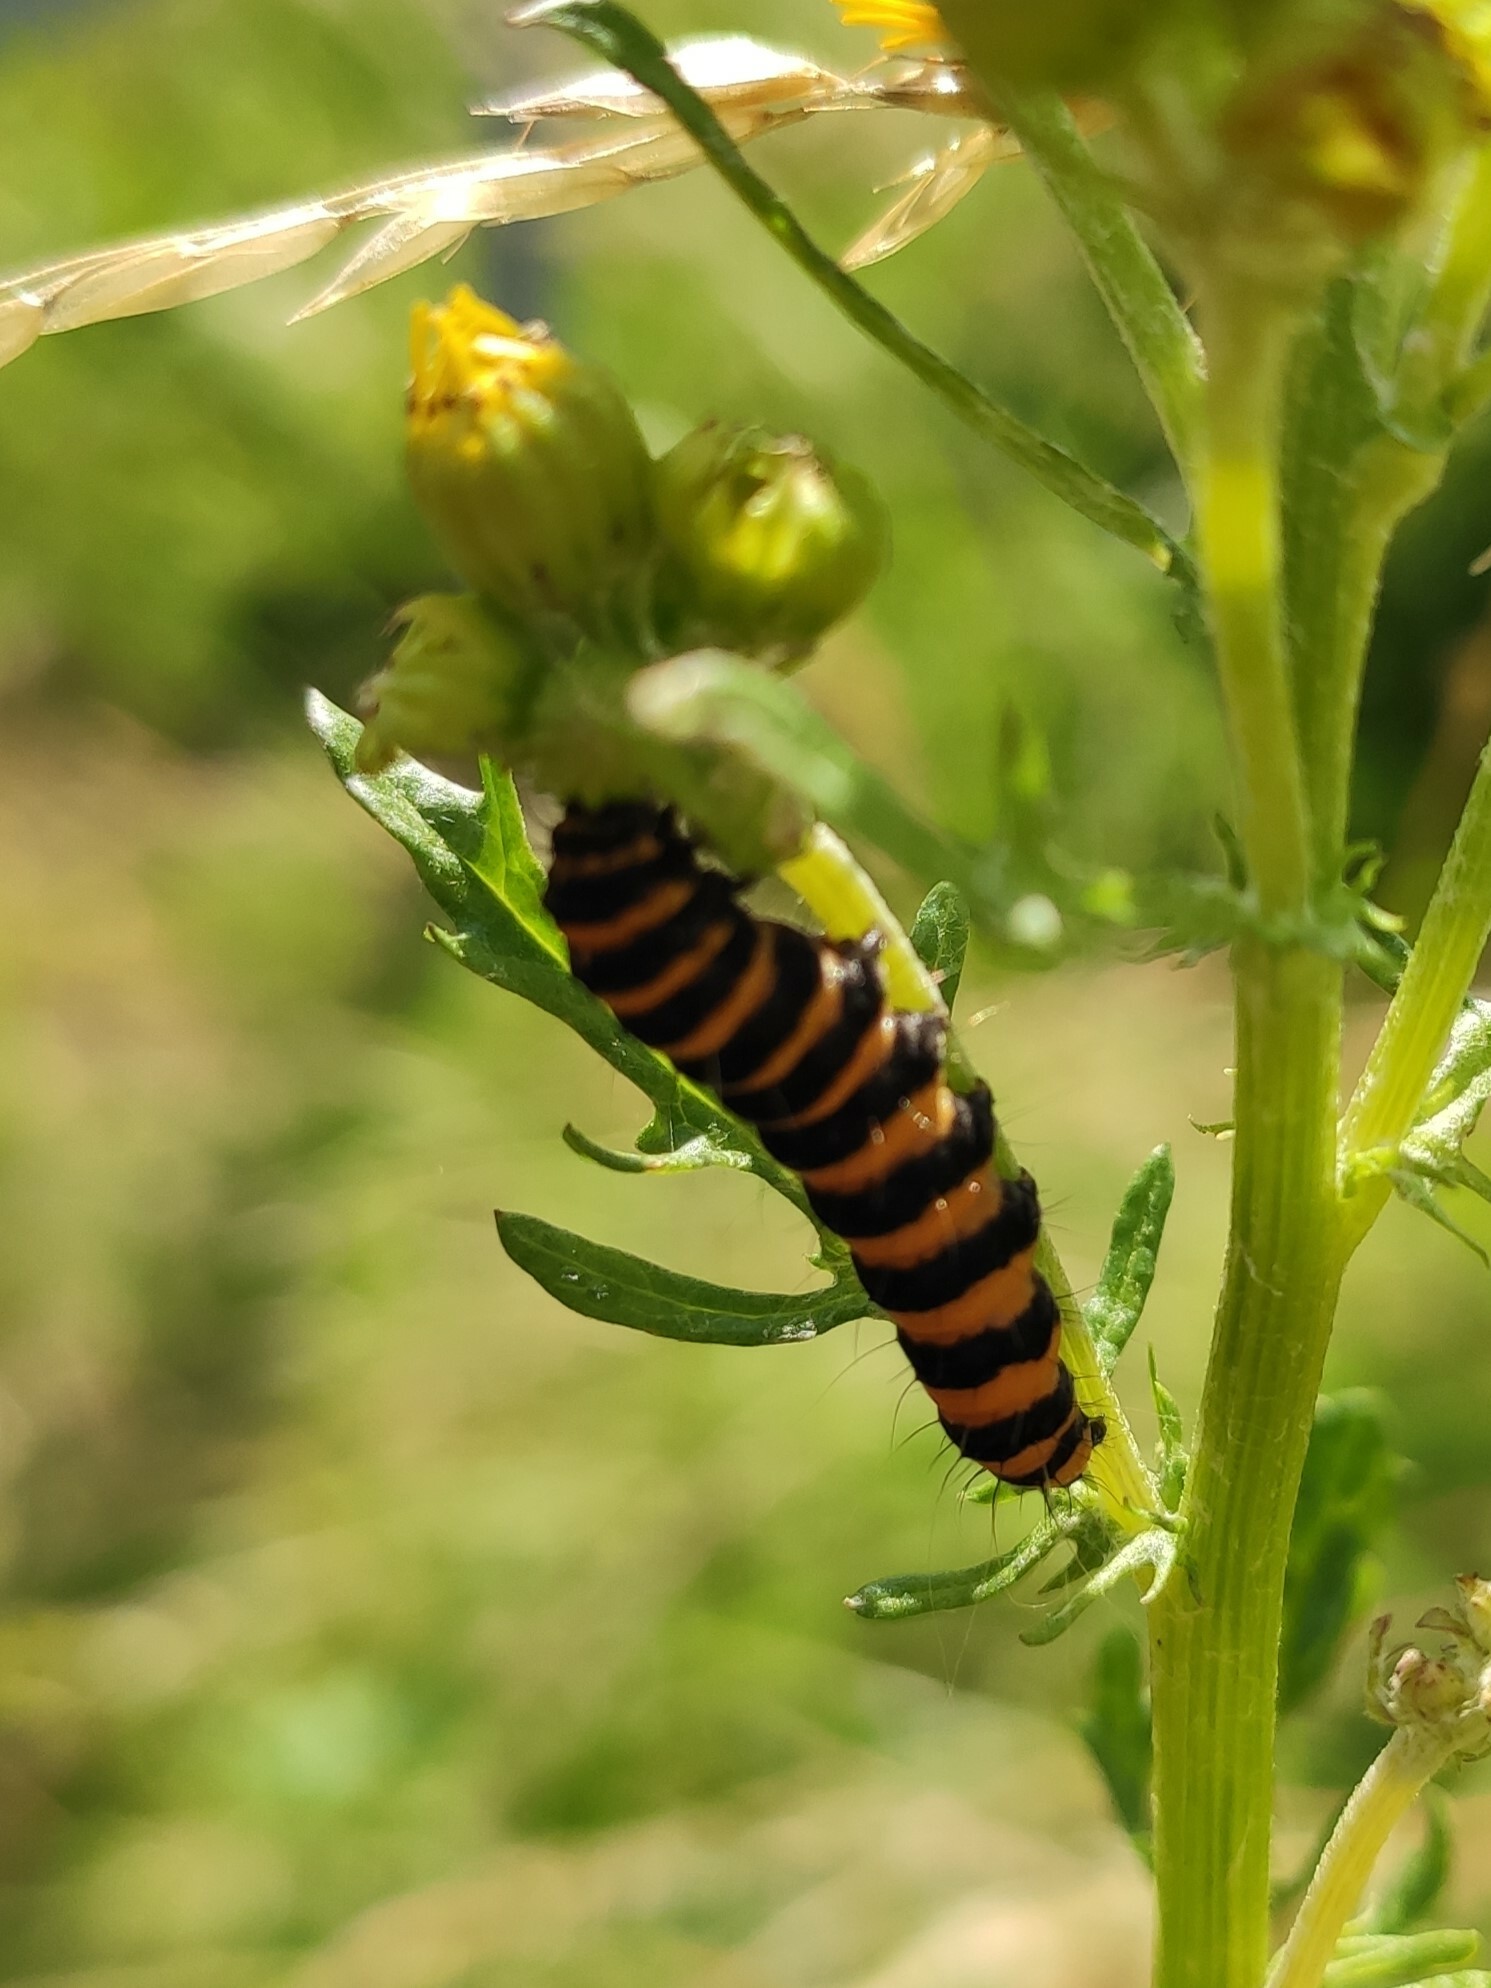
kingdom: Animalia
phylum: Arthropoda
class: Insecta
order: Lepidoptera
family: Erebidae
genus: Tyria
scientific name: Tyria jacobaeae
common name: Cinnabar
